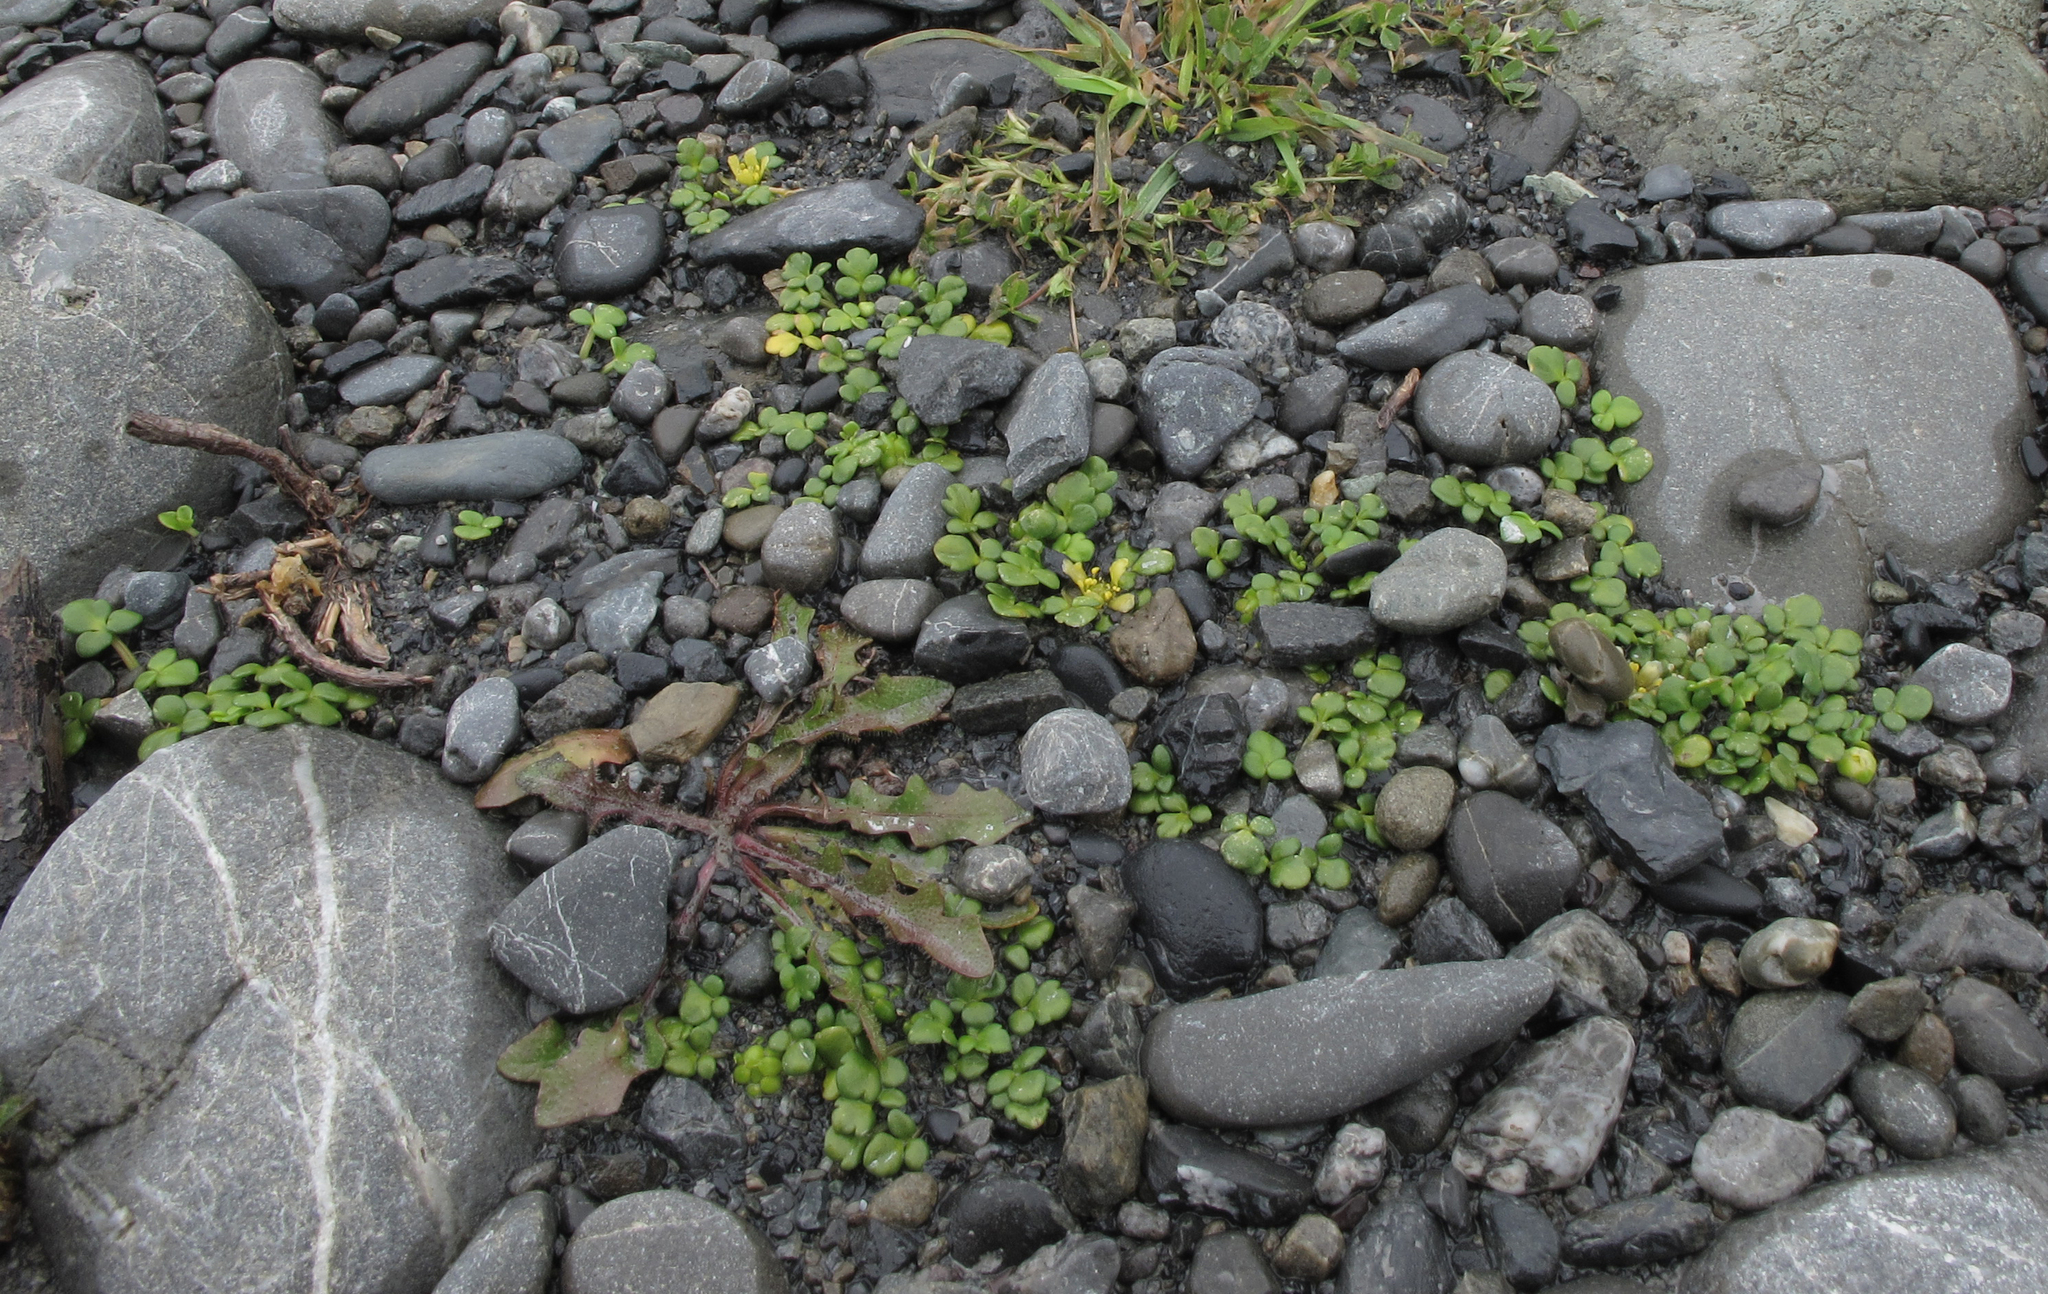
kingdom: Plantae
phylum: Tracheophyta
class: Magnoliopsida
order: Ranunculales
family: Ranunculaceae
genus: Ranunculus
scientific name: Ranunculus acaulis
